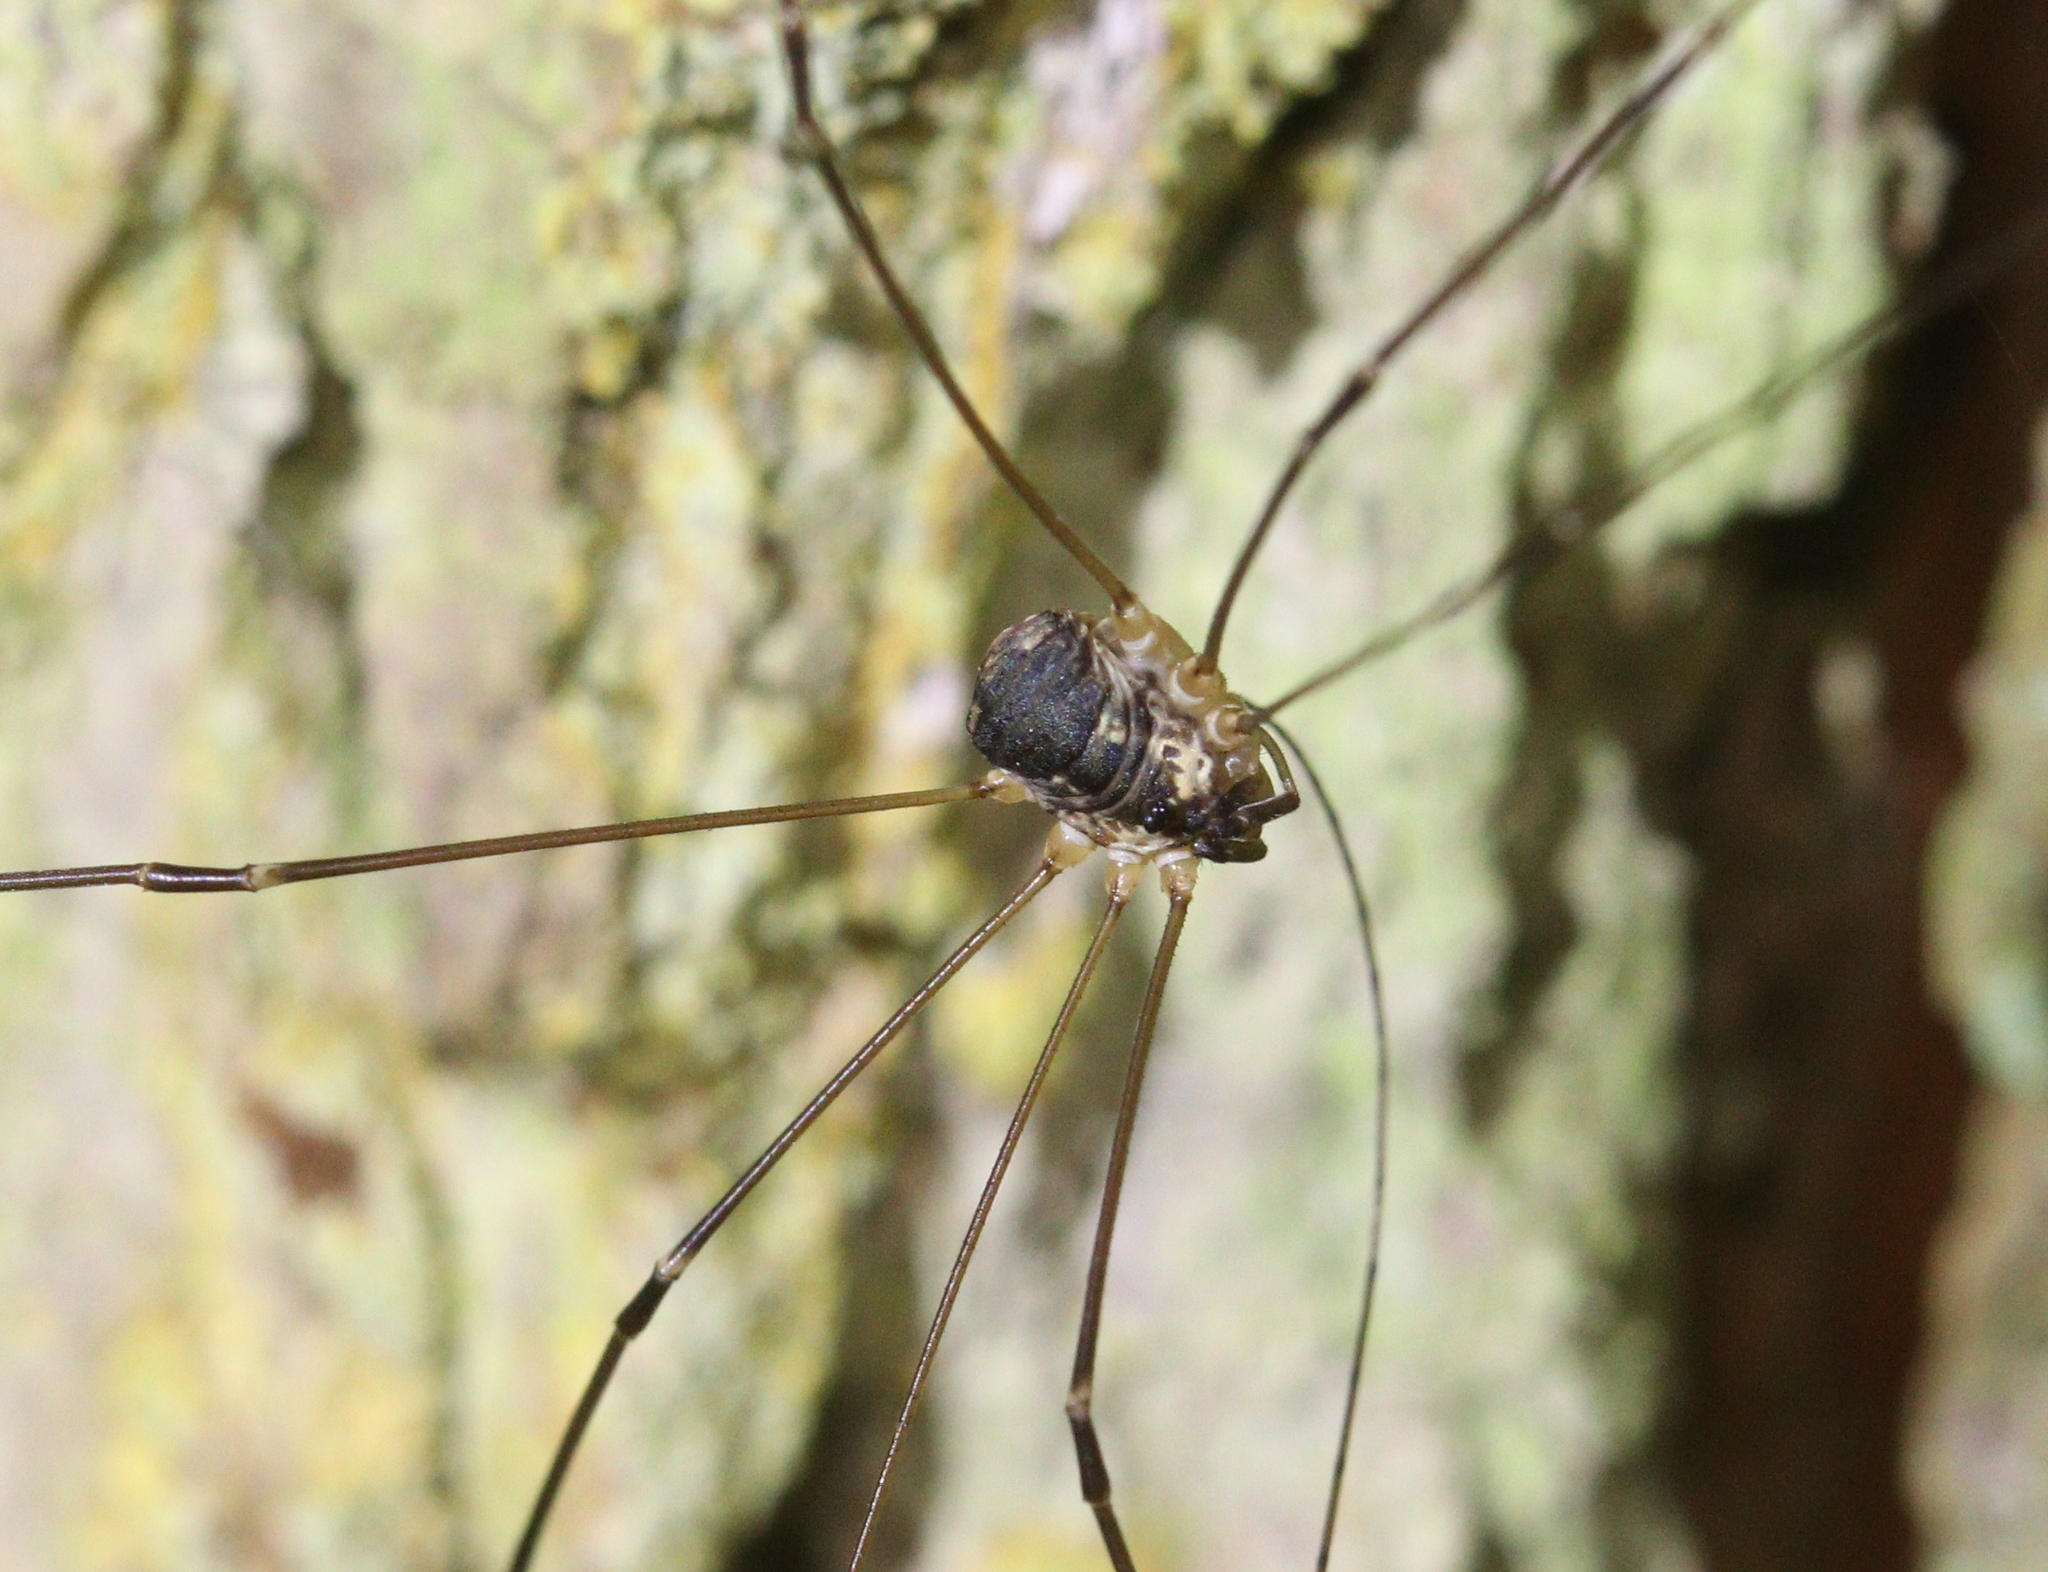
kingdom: Animalia
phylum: Arthropoda
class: Arachnida
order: Opiliones
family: Sclerosomatidae
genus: Leiobunum
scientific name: Leiobunum rupestre
